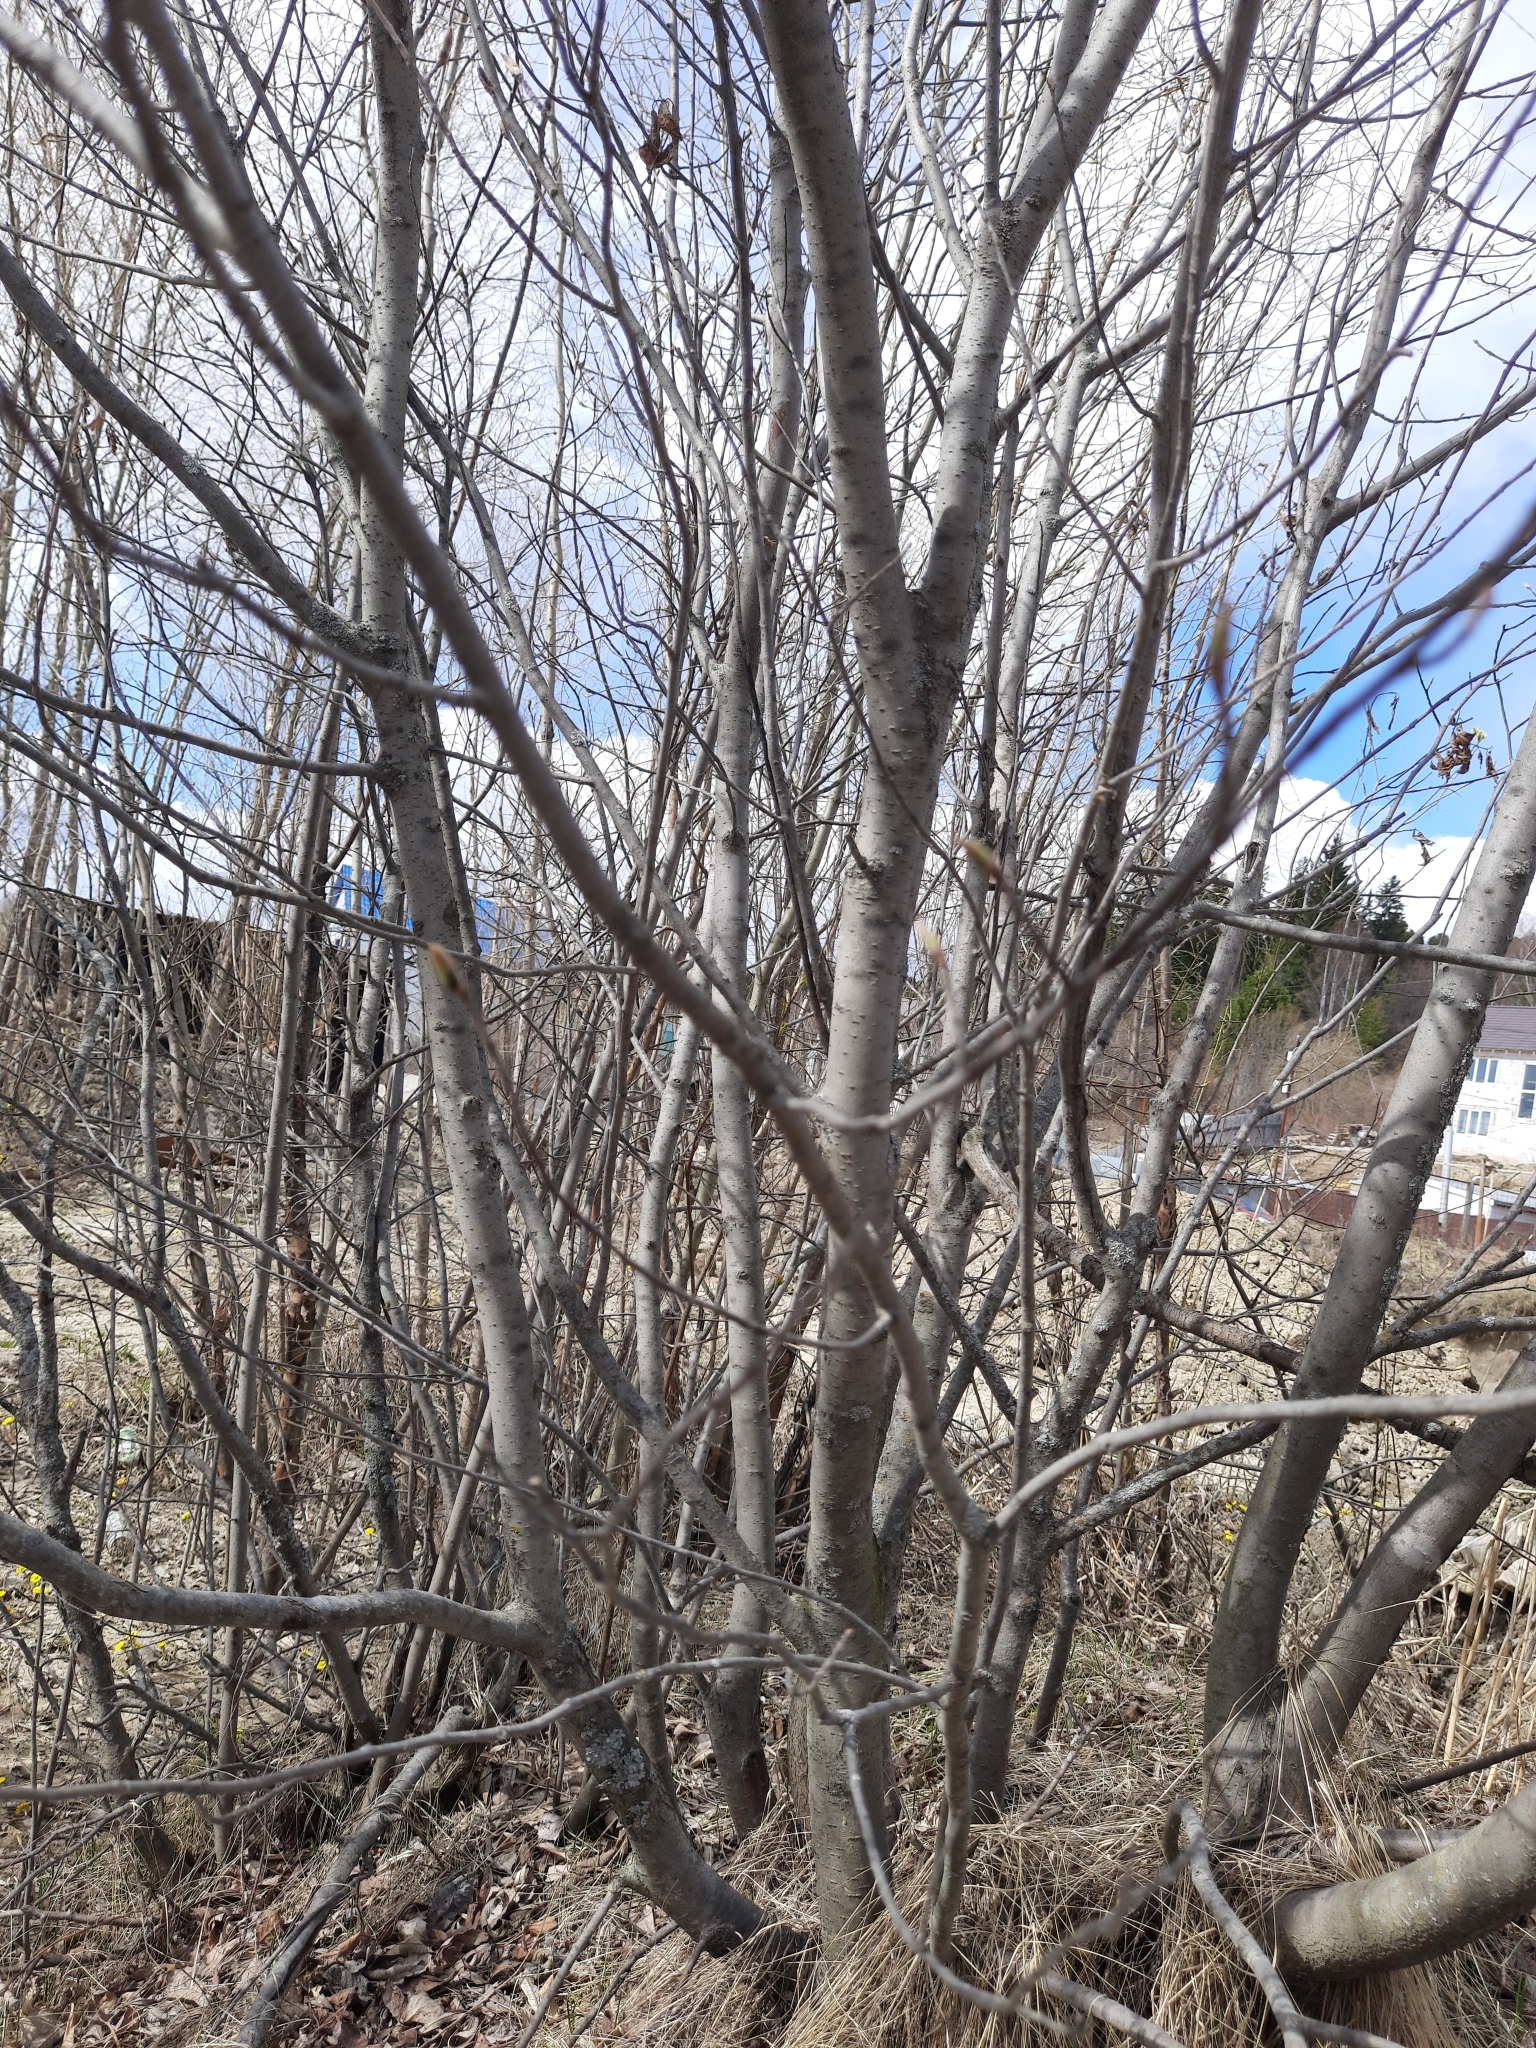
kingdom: Plantae
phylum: Tracheophyta
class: Magnoliopsida
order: Rosales
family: Rosaceae
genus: Prunus
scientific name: Prunus padus
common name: Bird cherry
